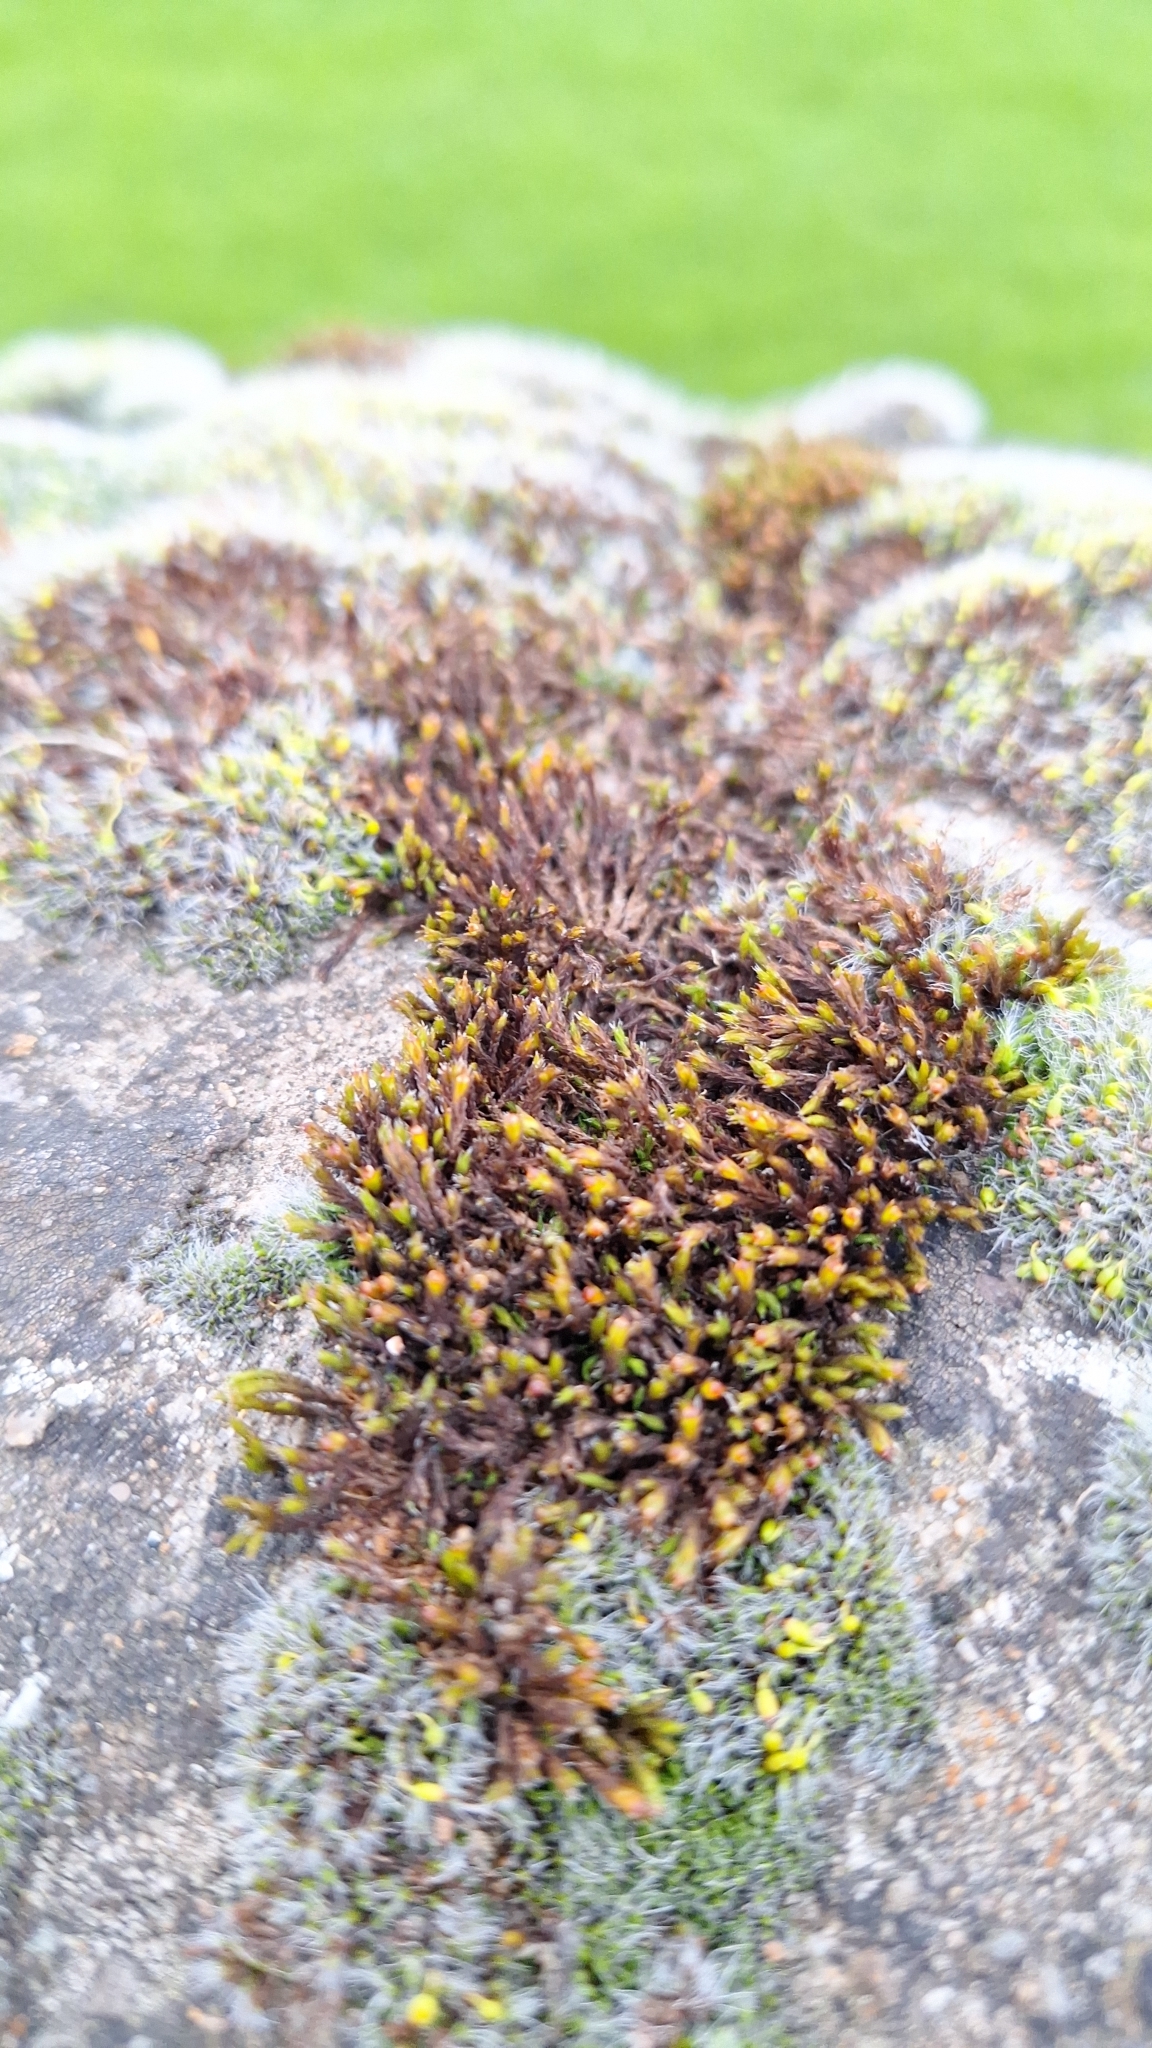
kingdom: Plantae
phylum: Bryophyta
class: Bryopsida
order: Grimmiales
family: Grimmiaceae
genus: Schistidium
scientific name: Schistidium crassipilum
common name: Thickpoint bloom moss
